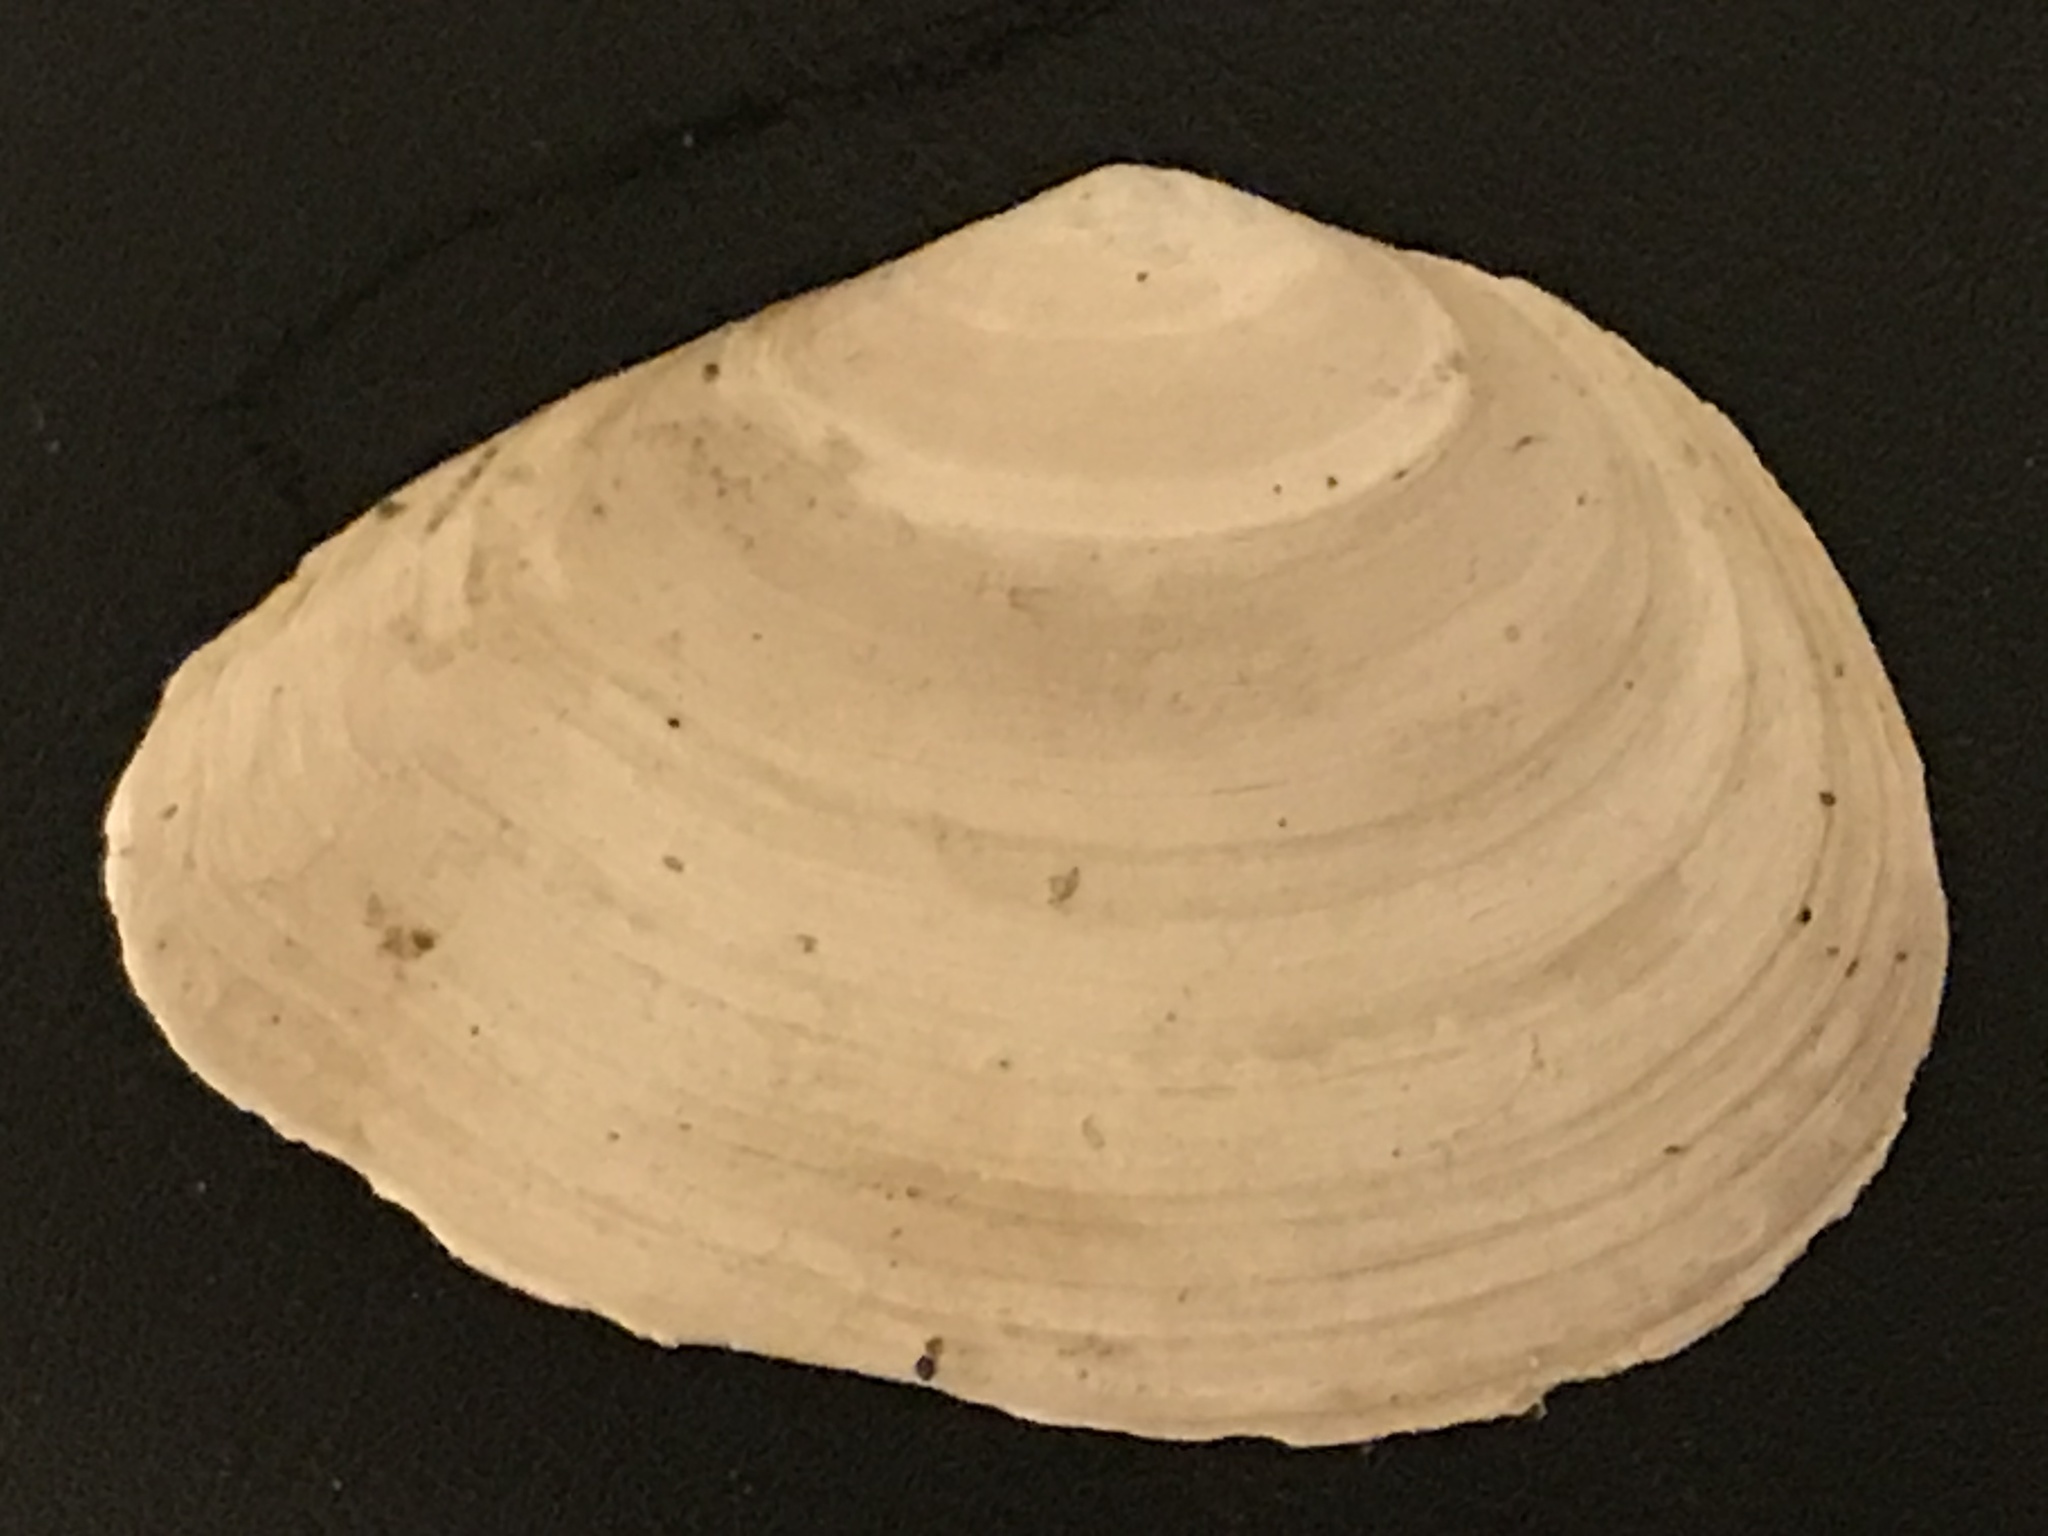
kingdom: Animalia
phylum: Mollusca
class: Bivalvia
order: Cardiida
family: Tellinidae
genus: Macoma
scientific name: Macoma nasuta
